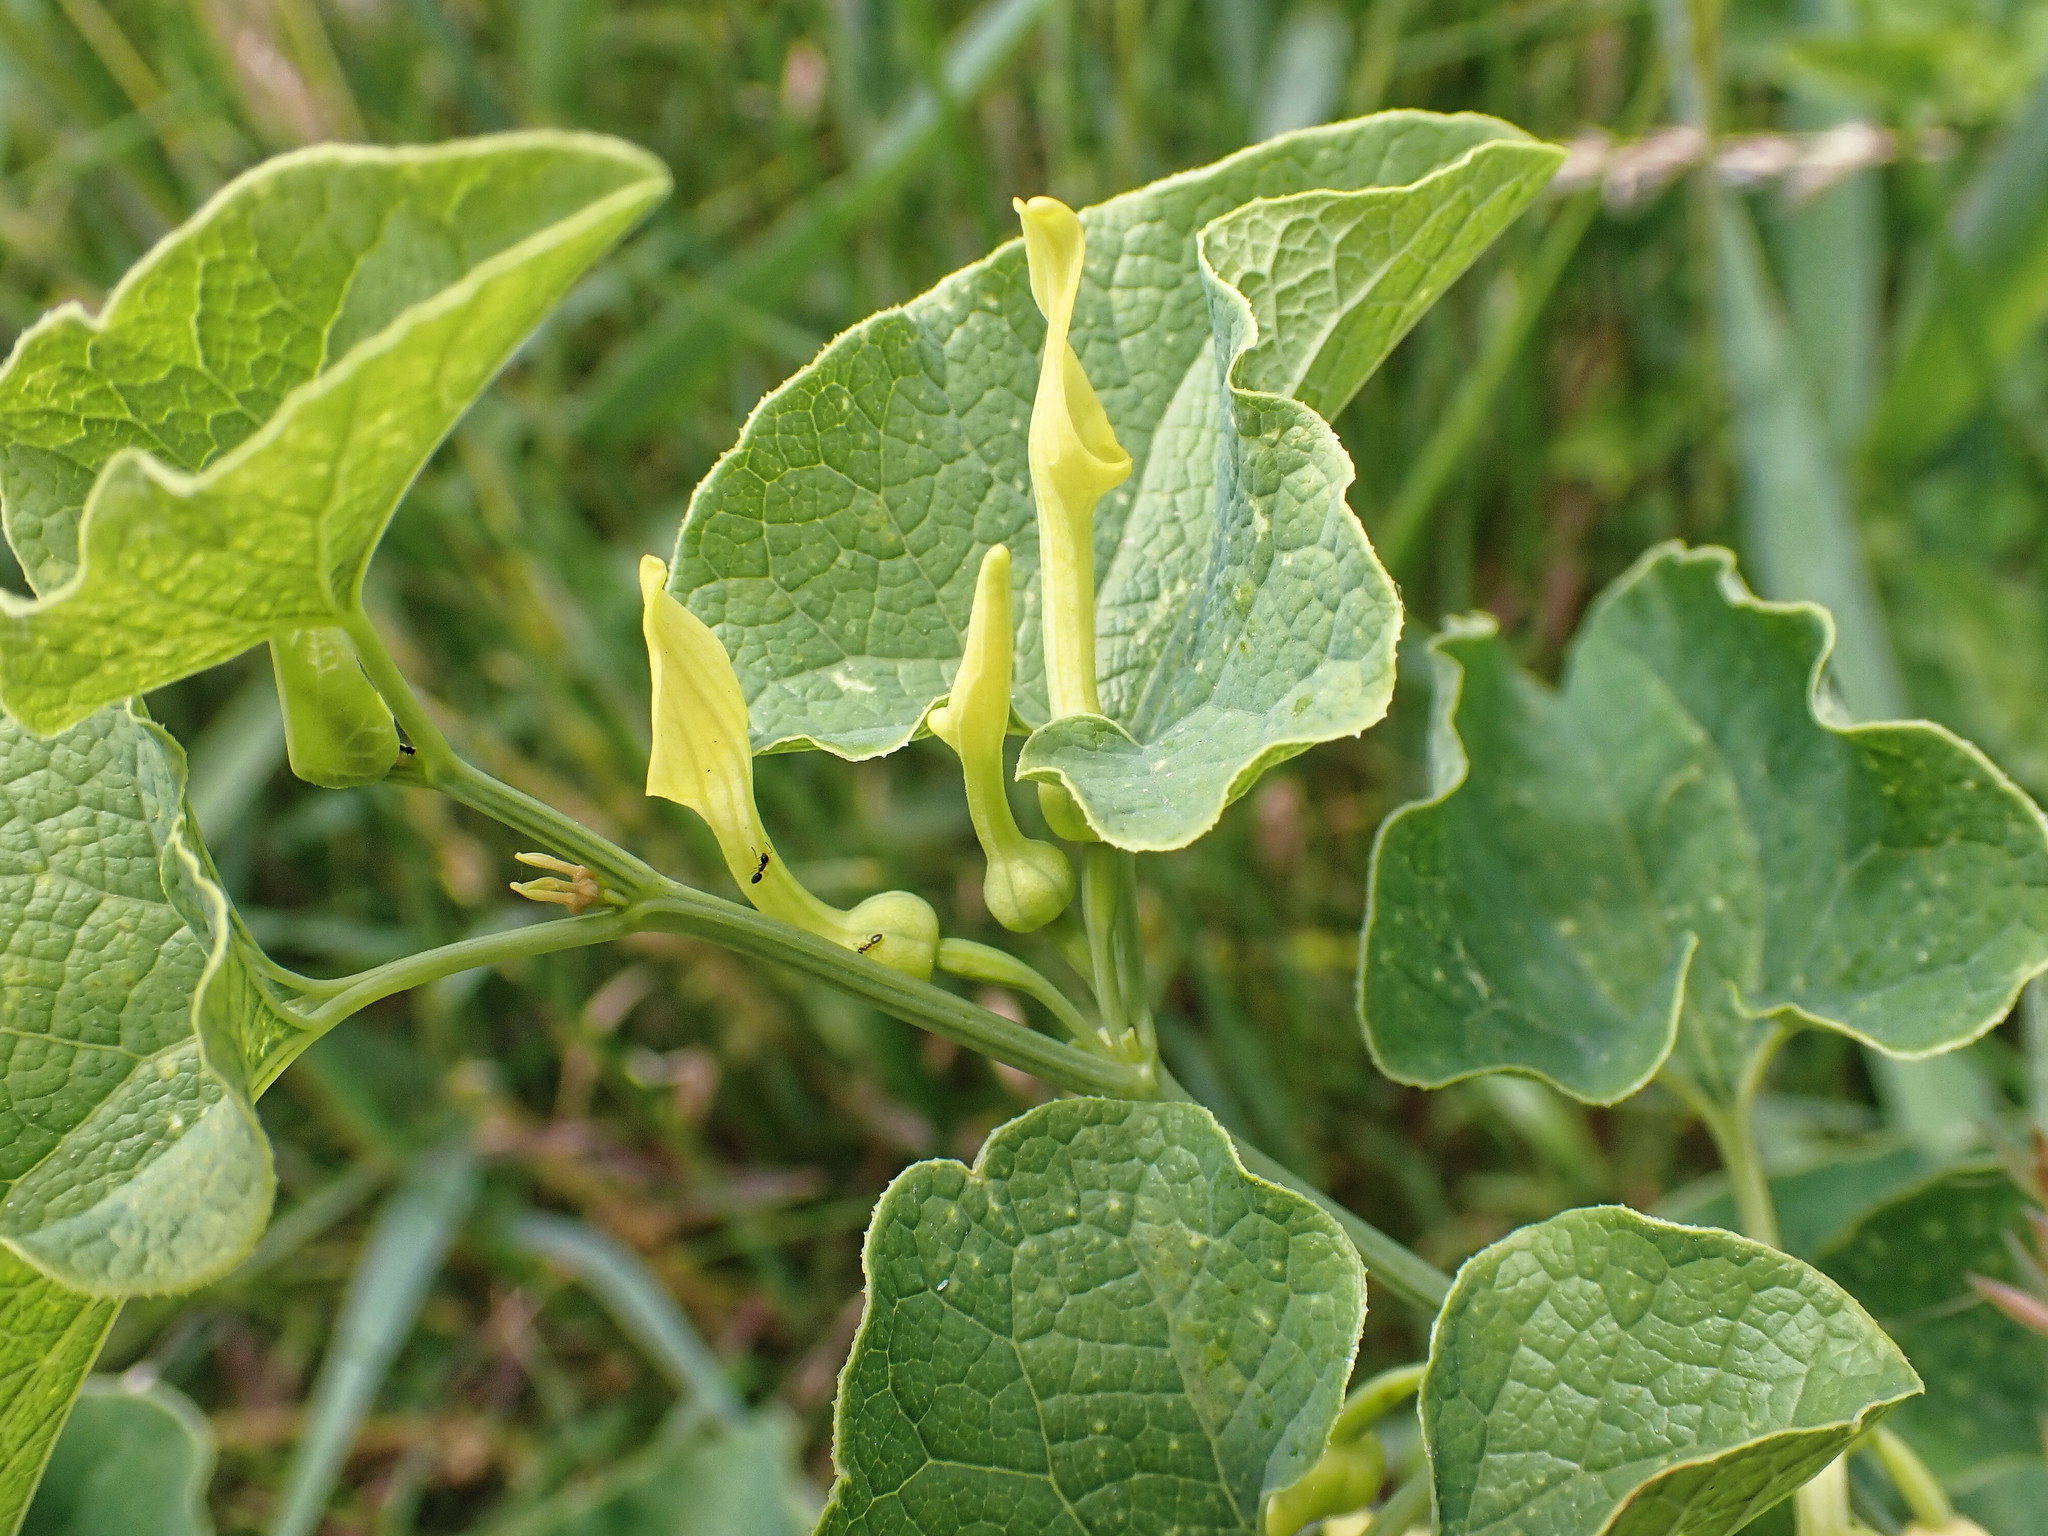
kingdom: Plantae
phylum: Tracheophyta
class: Magnoliopsida
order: Piperales
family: Aristolochiaceae
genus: Aristolochia
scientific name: Aristolochia clematitis
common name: Birthwort
